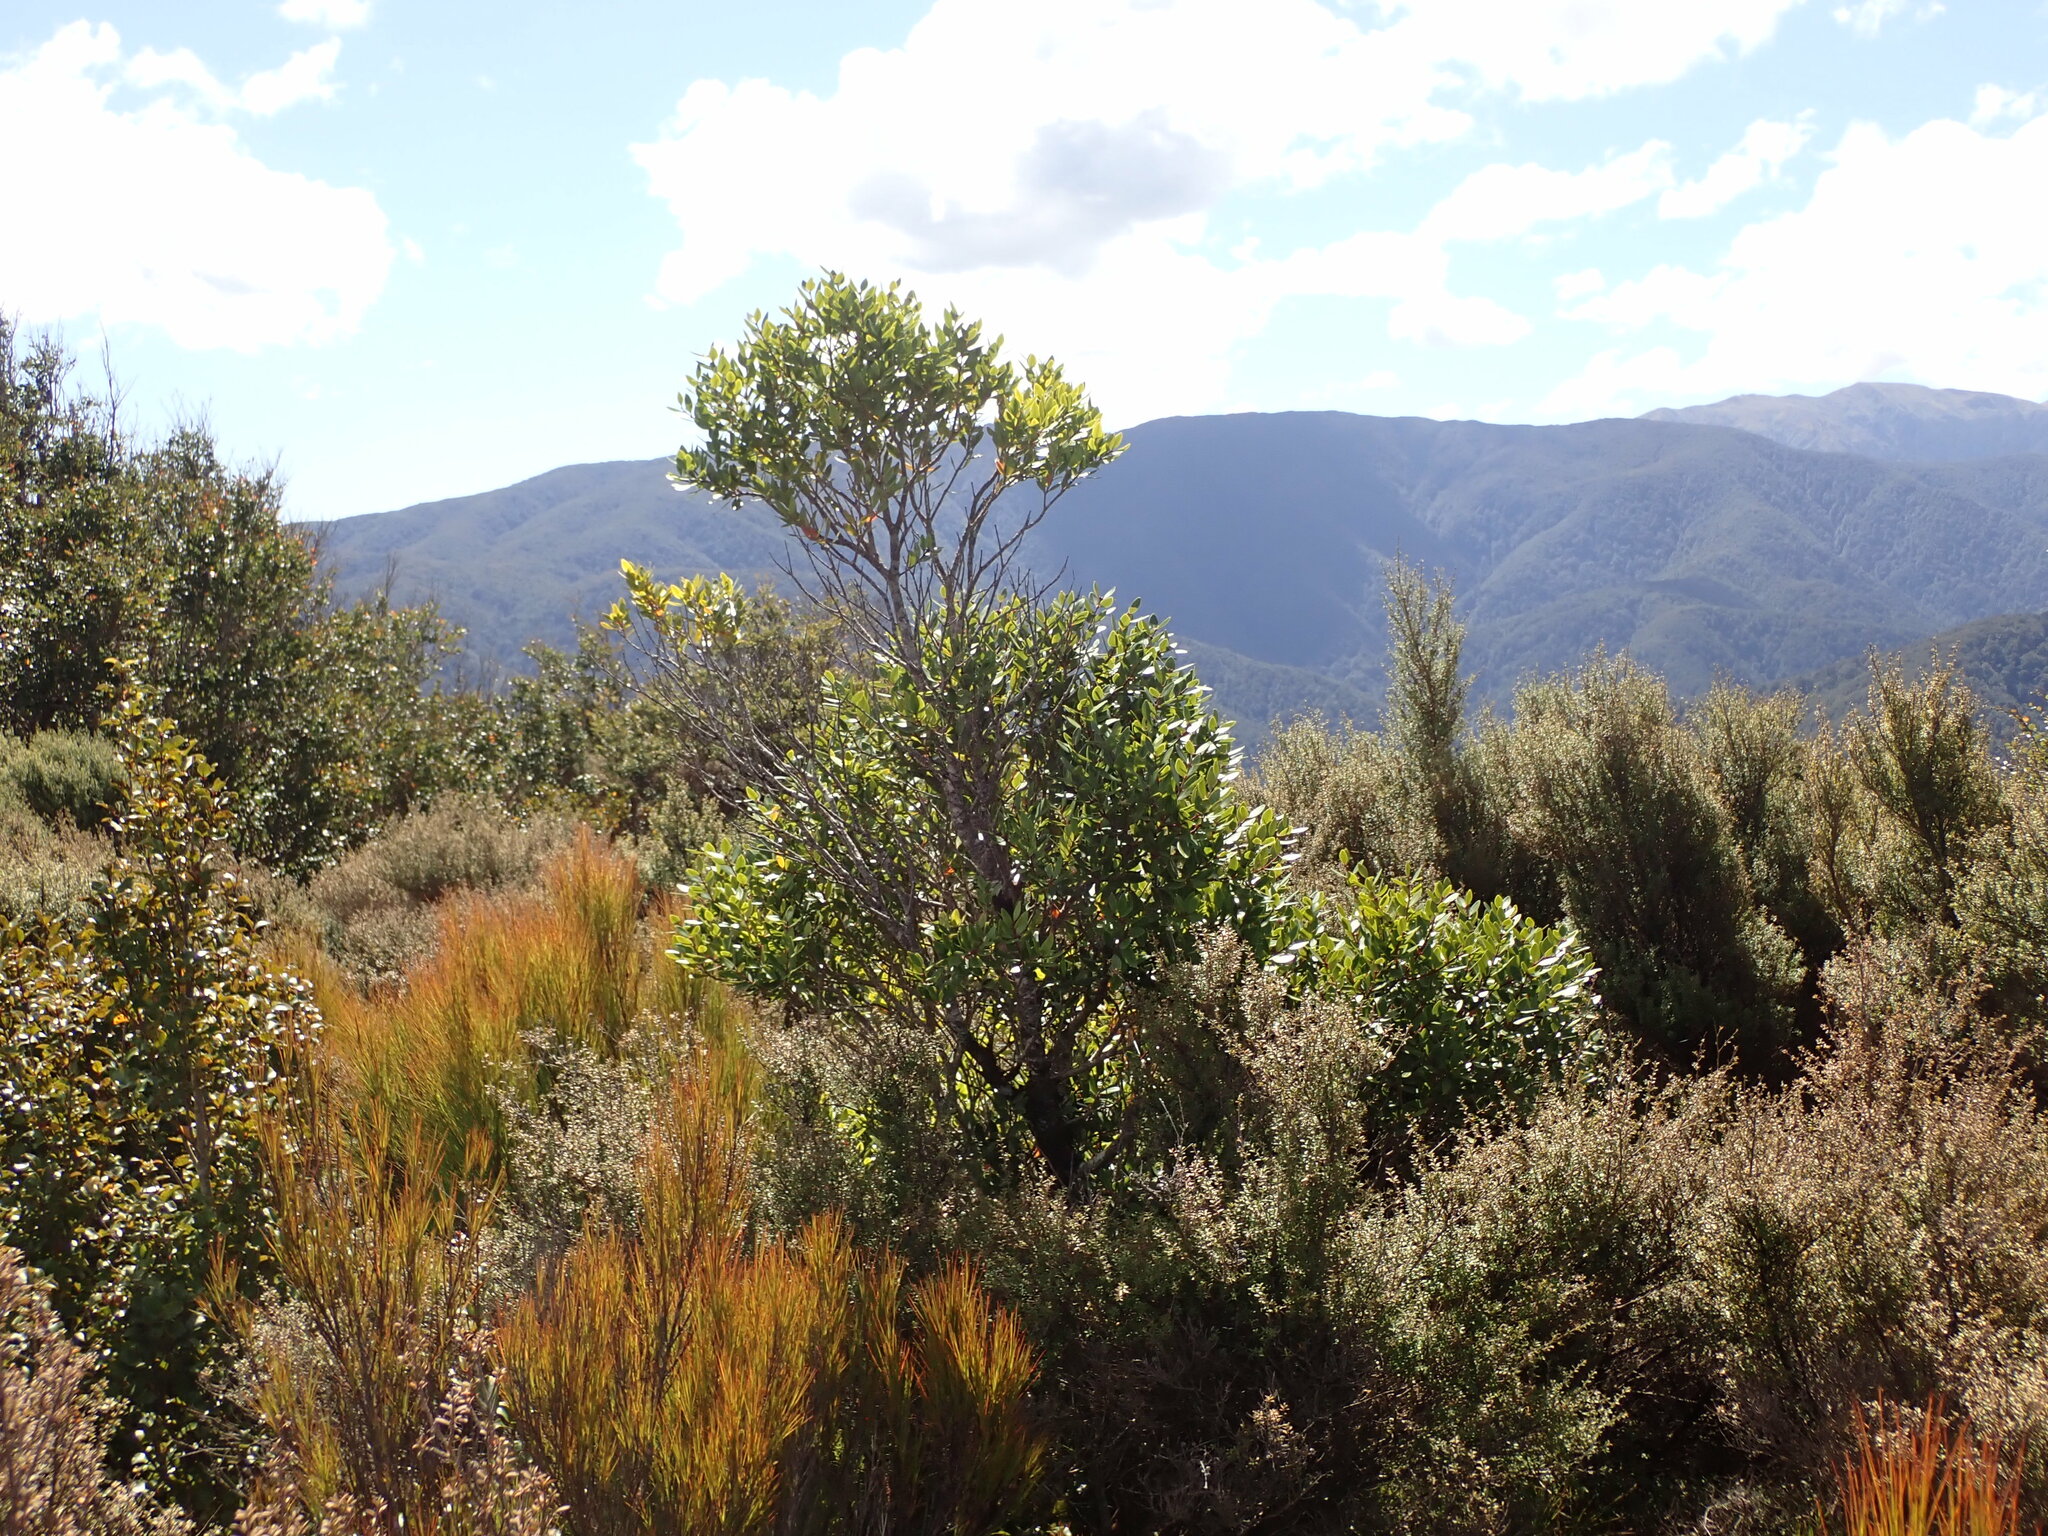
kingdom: Plantae
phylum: Tracheophyta
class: Magnoliopsida
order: Myrtales
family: Myrtaceae
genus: Metrosideros
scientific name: Metrosideros robusta
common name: Northern rata
